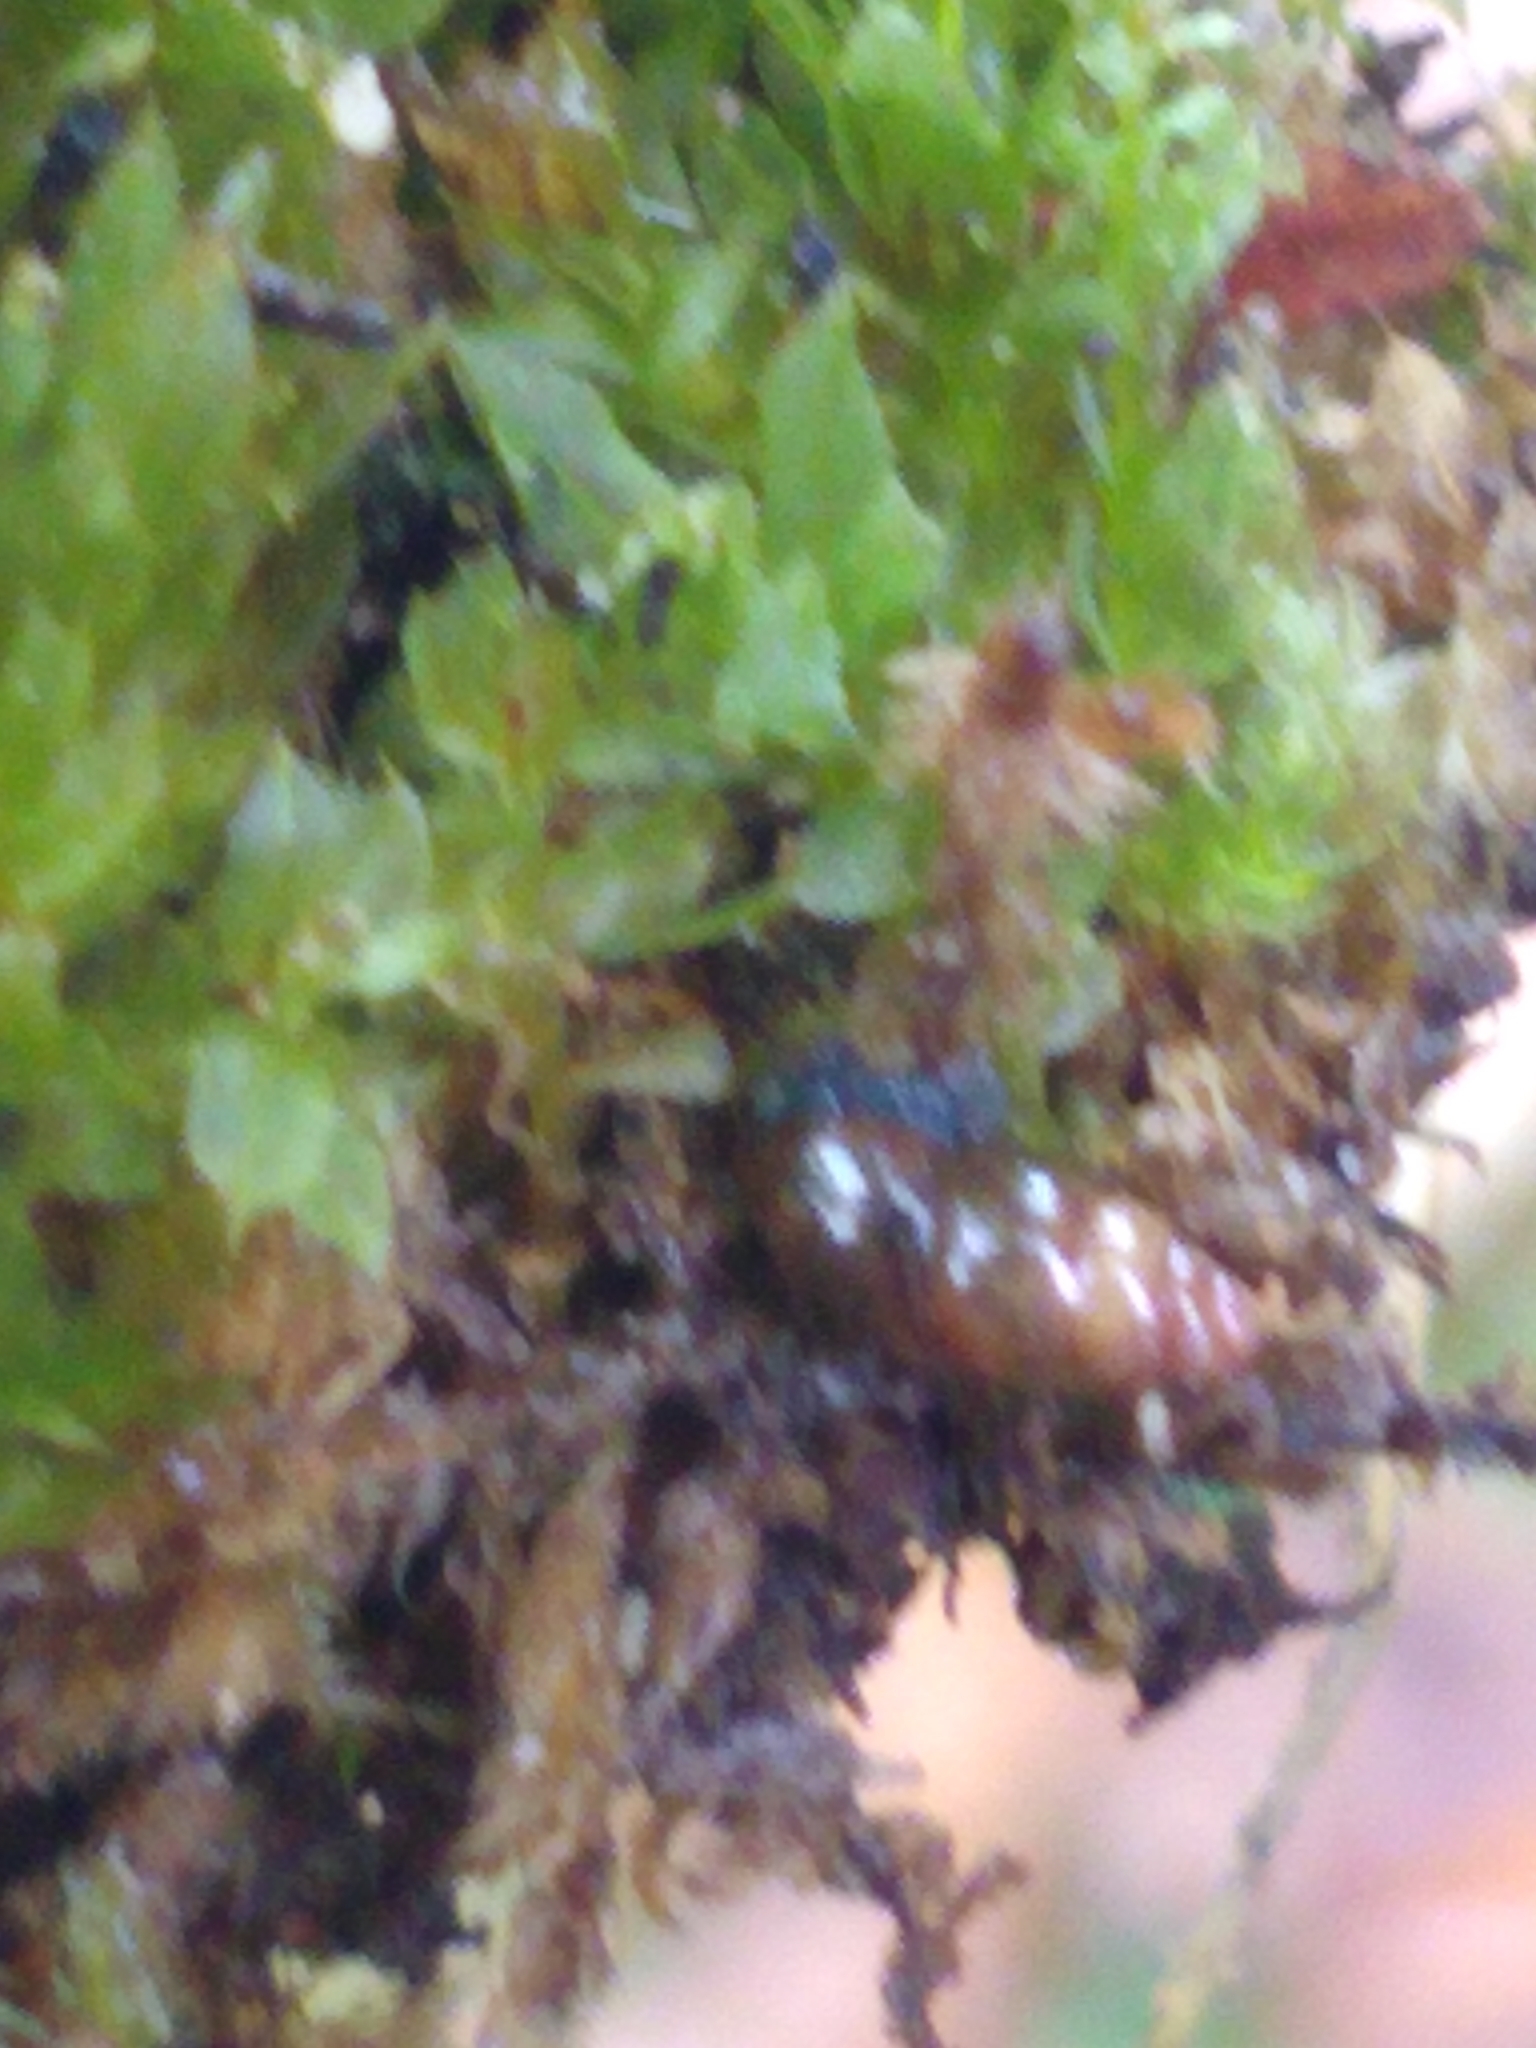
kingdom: Animalia
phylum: Mollusca
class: Gastropoda
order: Stylommatophora
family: Cochlicopidae
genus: Cochlicopa
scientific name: Cochlicopa lubrica
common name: Glossy pillar snail
